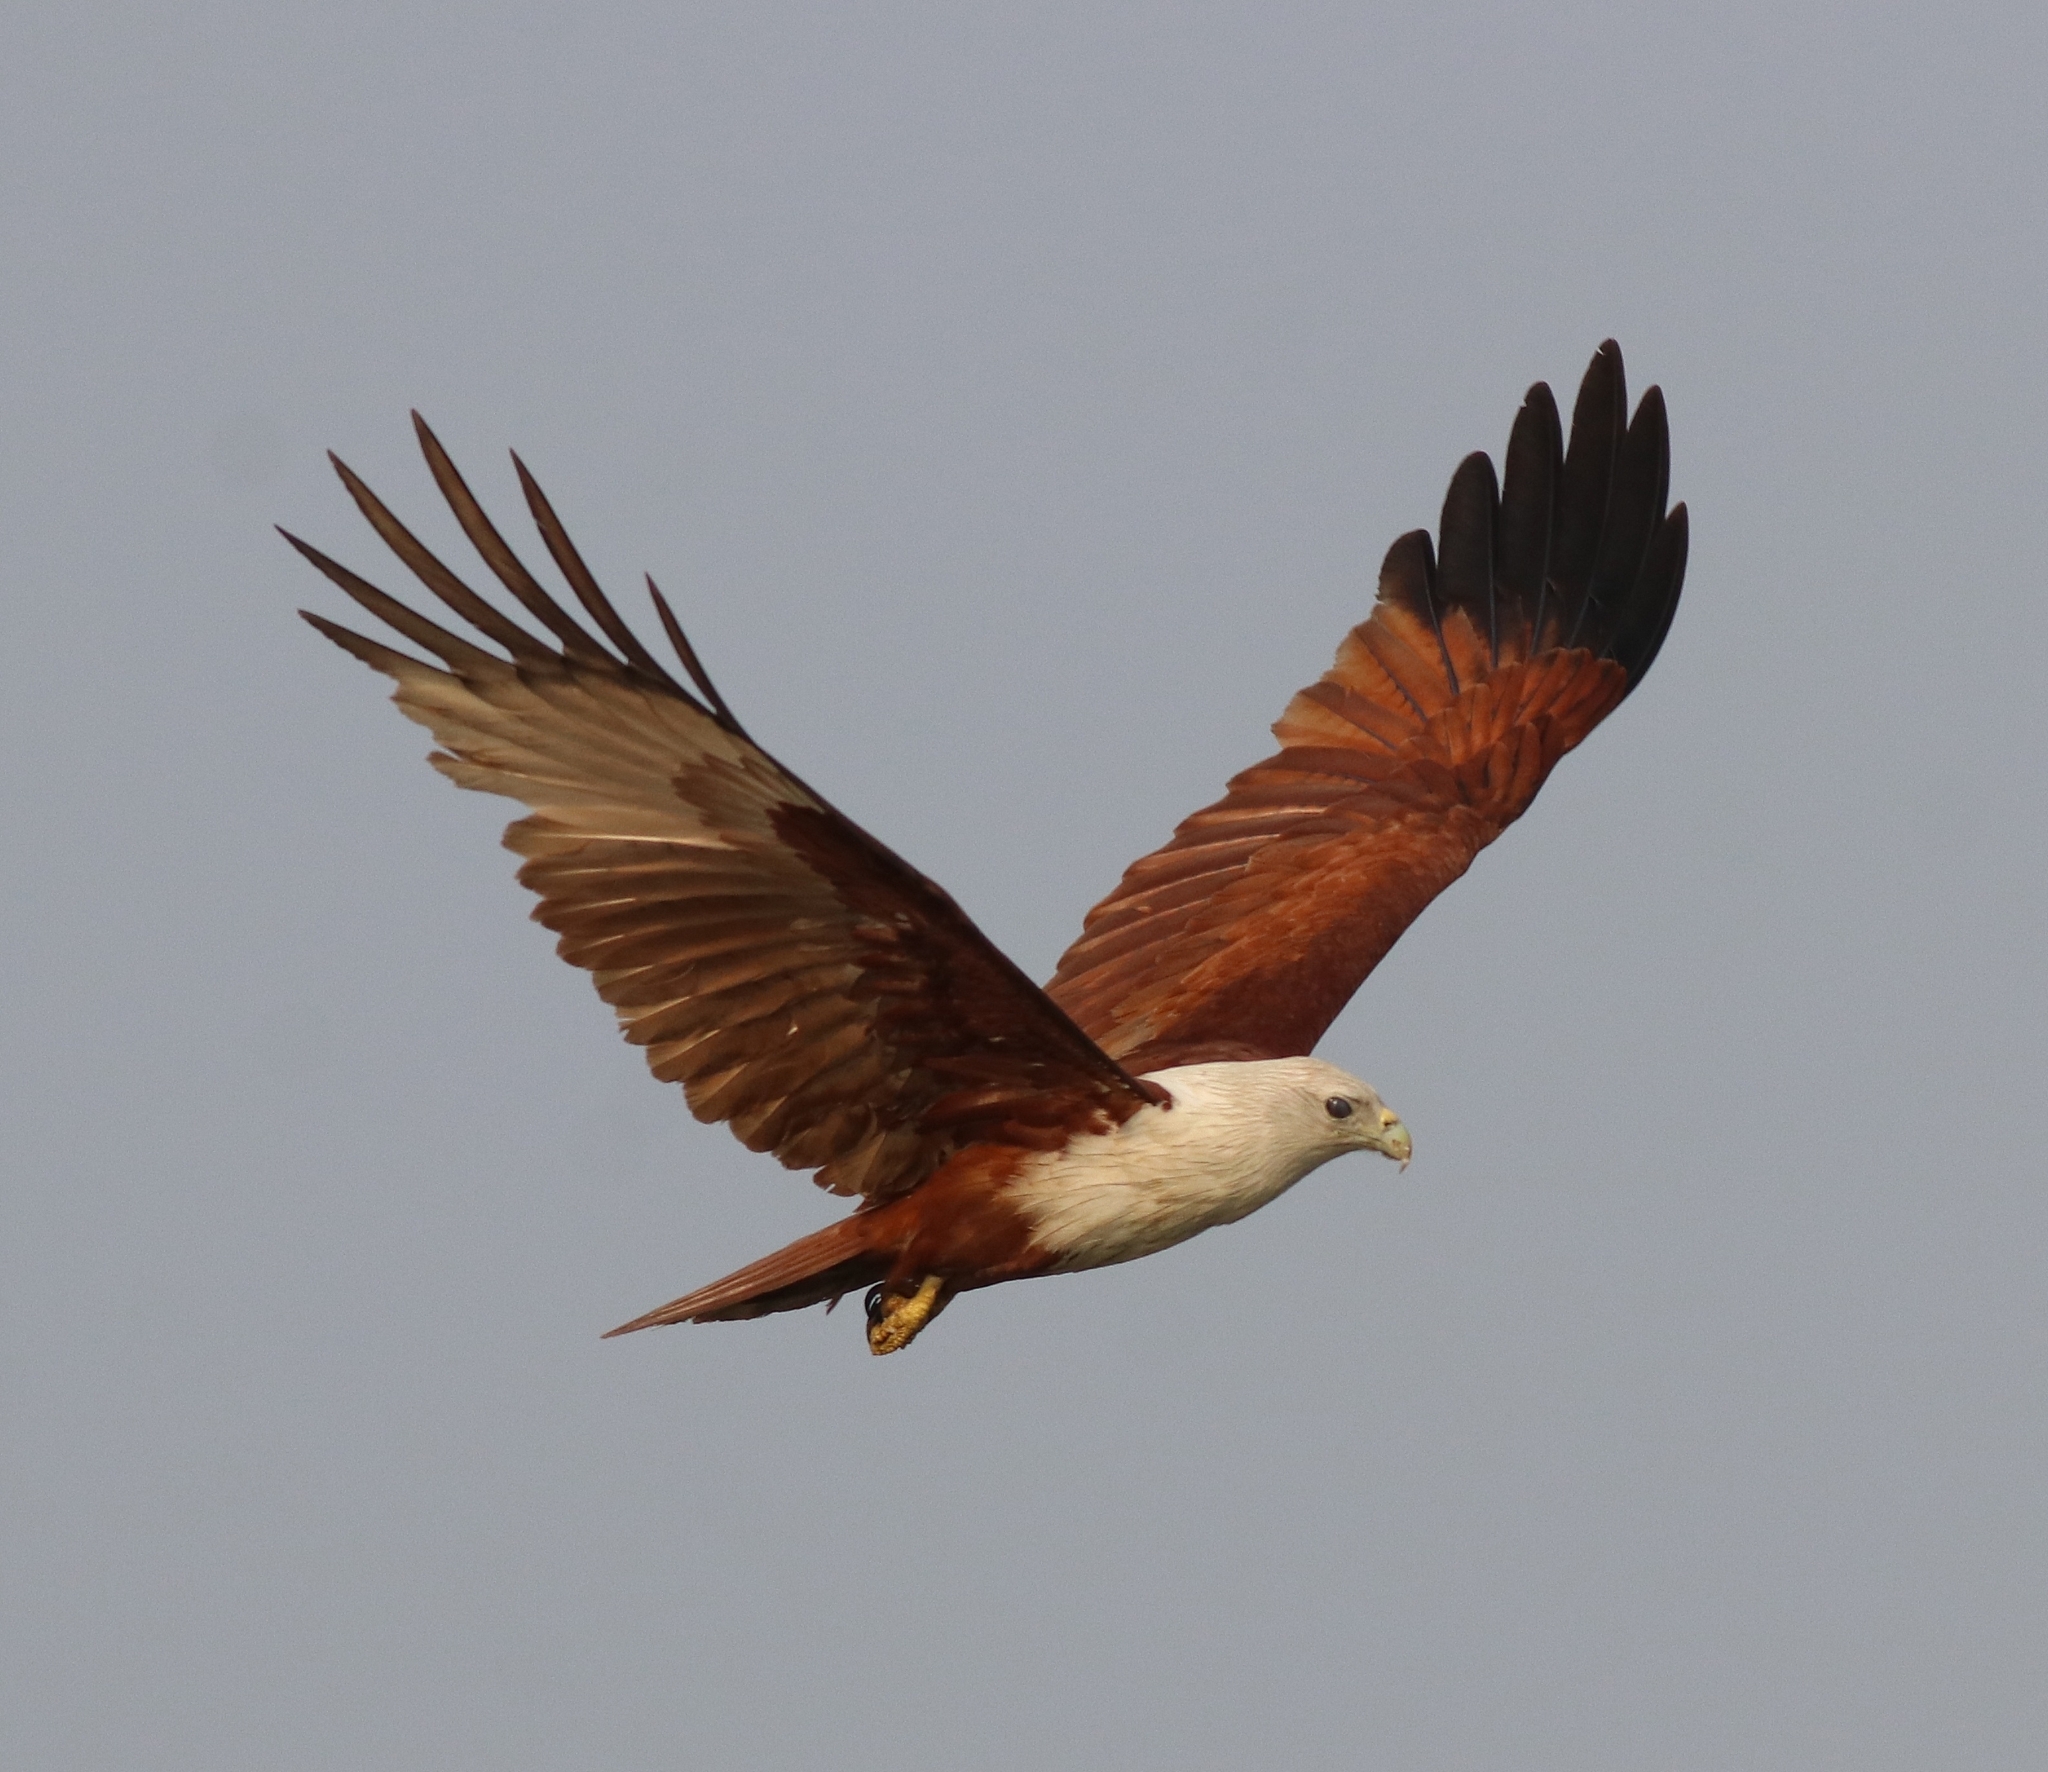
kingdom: Animalia
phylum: Chordata
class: Aves
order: Accipitriformes
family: Accipitridae
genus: Haliastur
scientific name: Haliastur indus
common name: Brahminy kite
